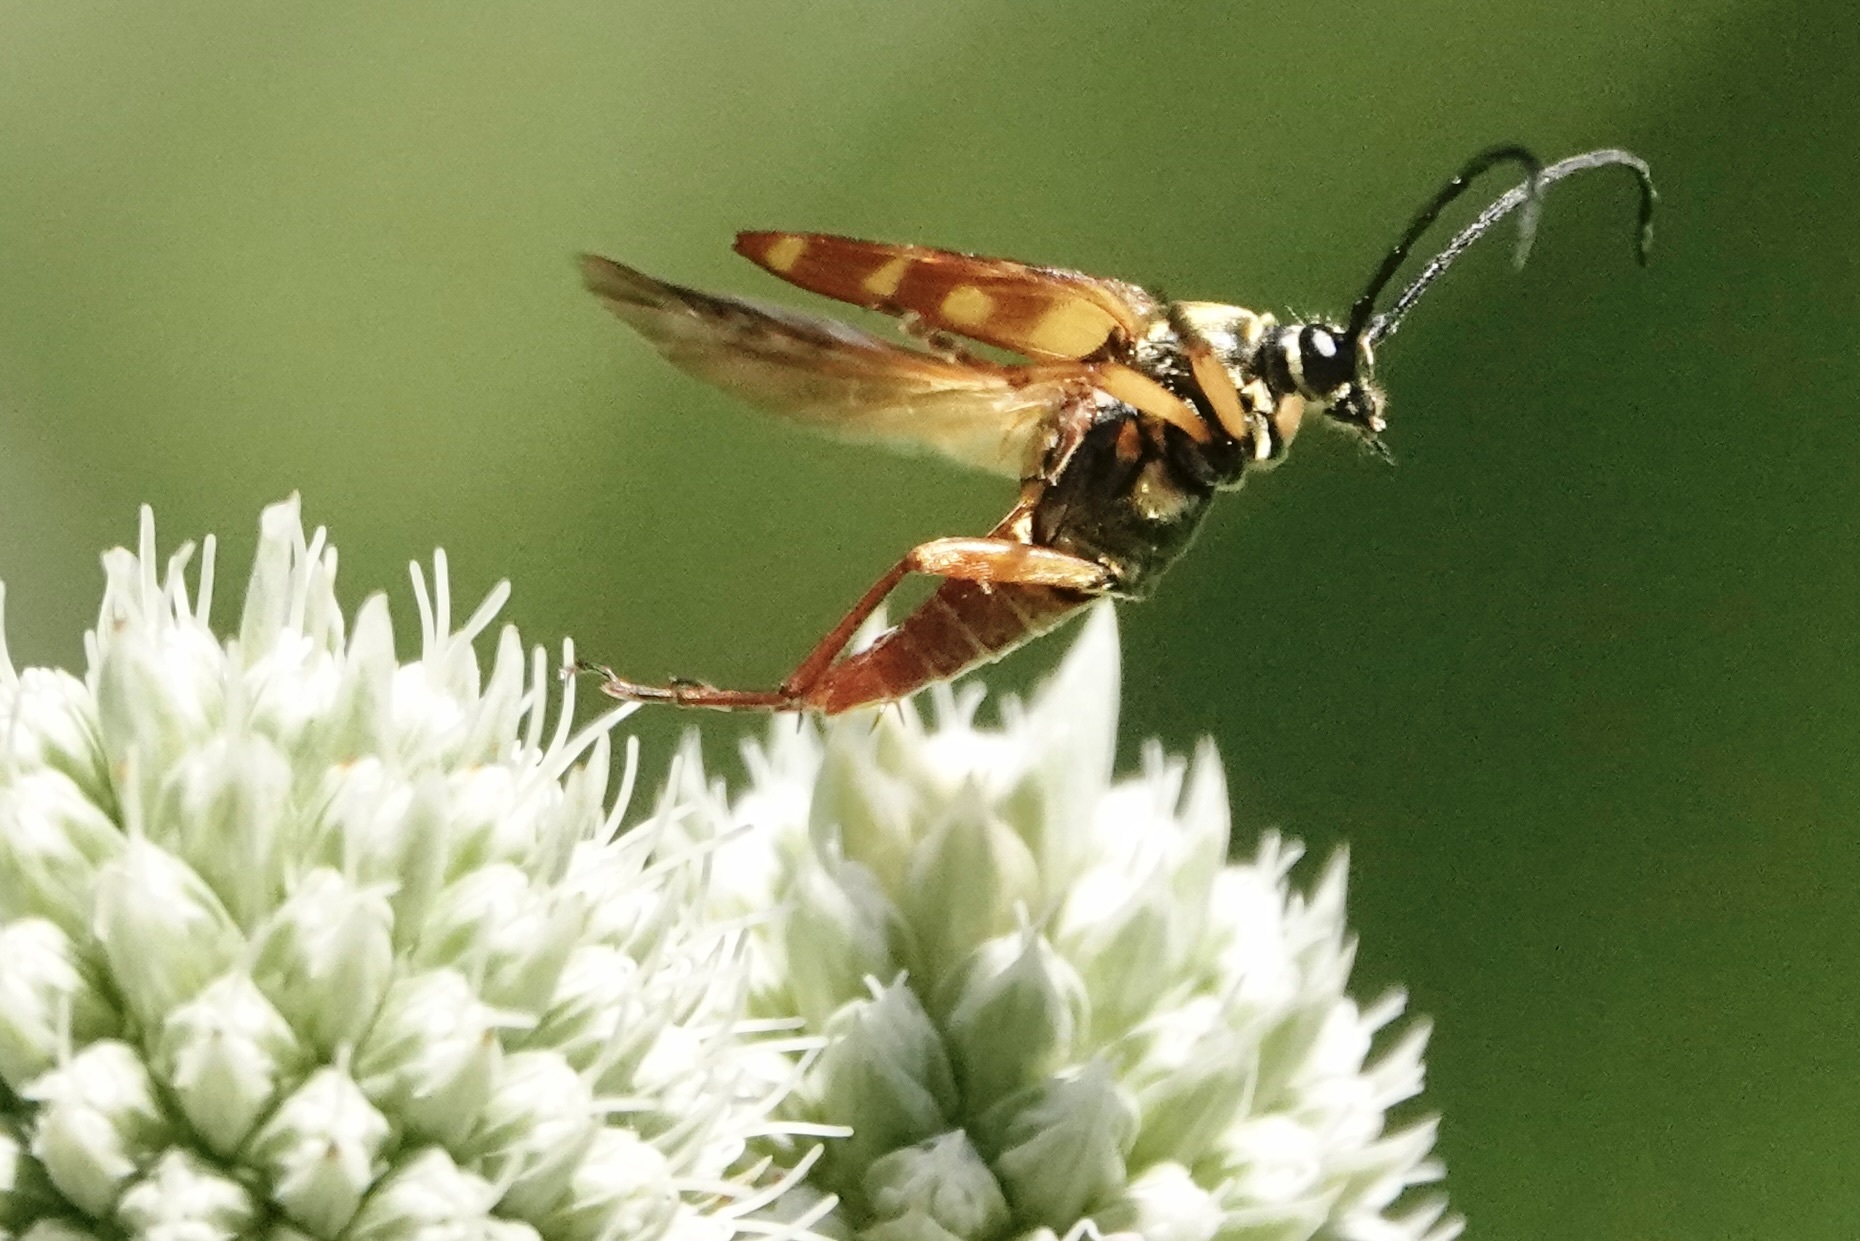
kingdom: Animalia
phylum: Arthropoda
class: Insecta
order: Coleoptera
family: Cerambycidae
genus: Typocerus
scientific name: Typocerus velutinus
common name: Banded longhorn beetle
